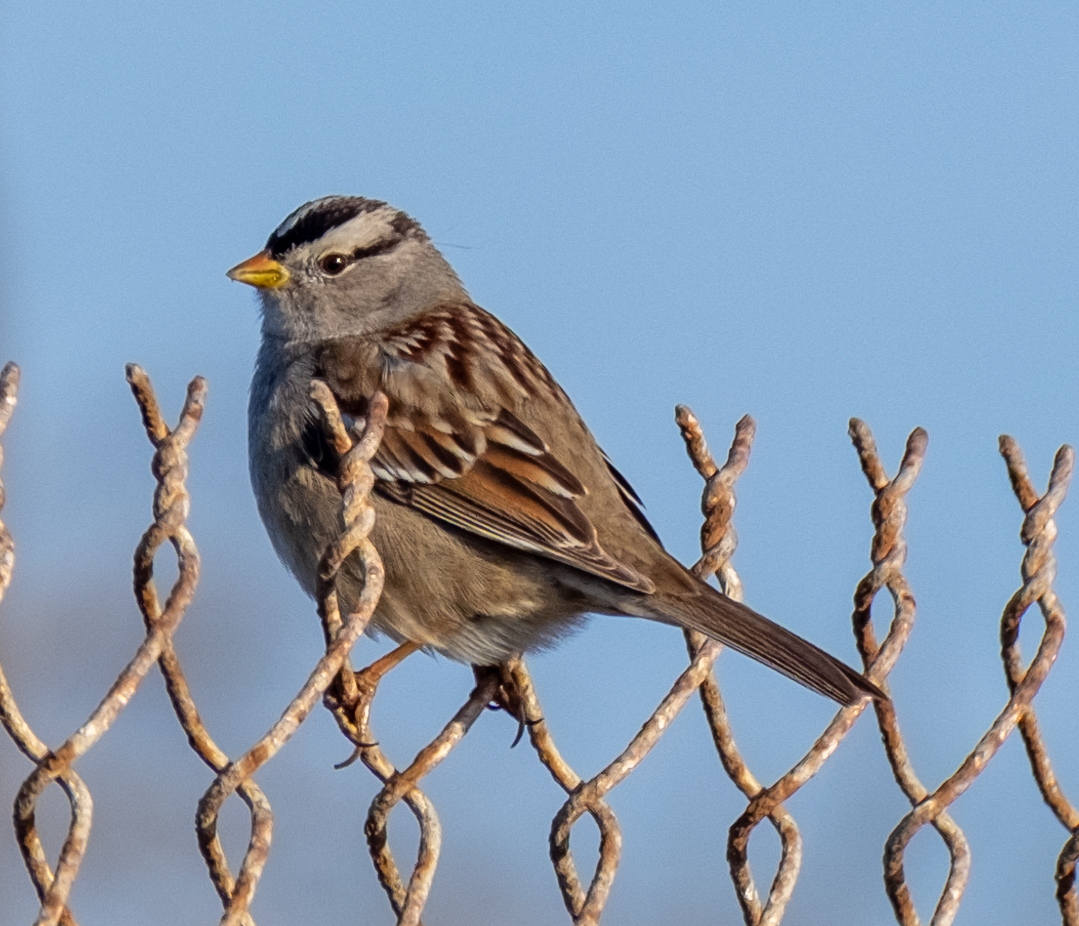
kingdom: Animalia
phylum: Chordata
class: Aves
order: Passeriformes
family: Passerellidae
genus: Zonotrichia
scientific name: Zonotrichia leucophrys
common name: White-crowned sparrow
